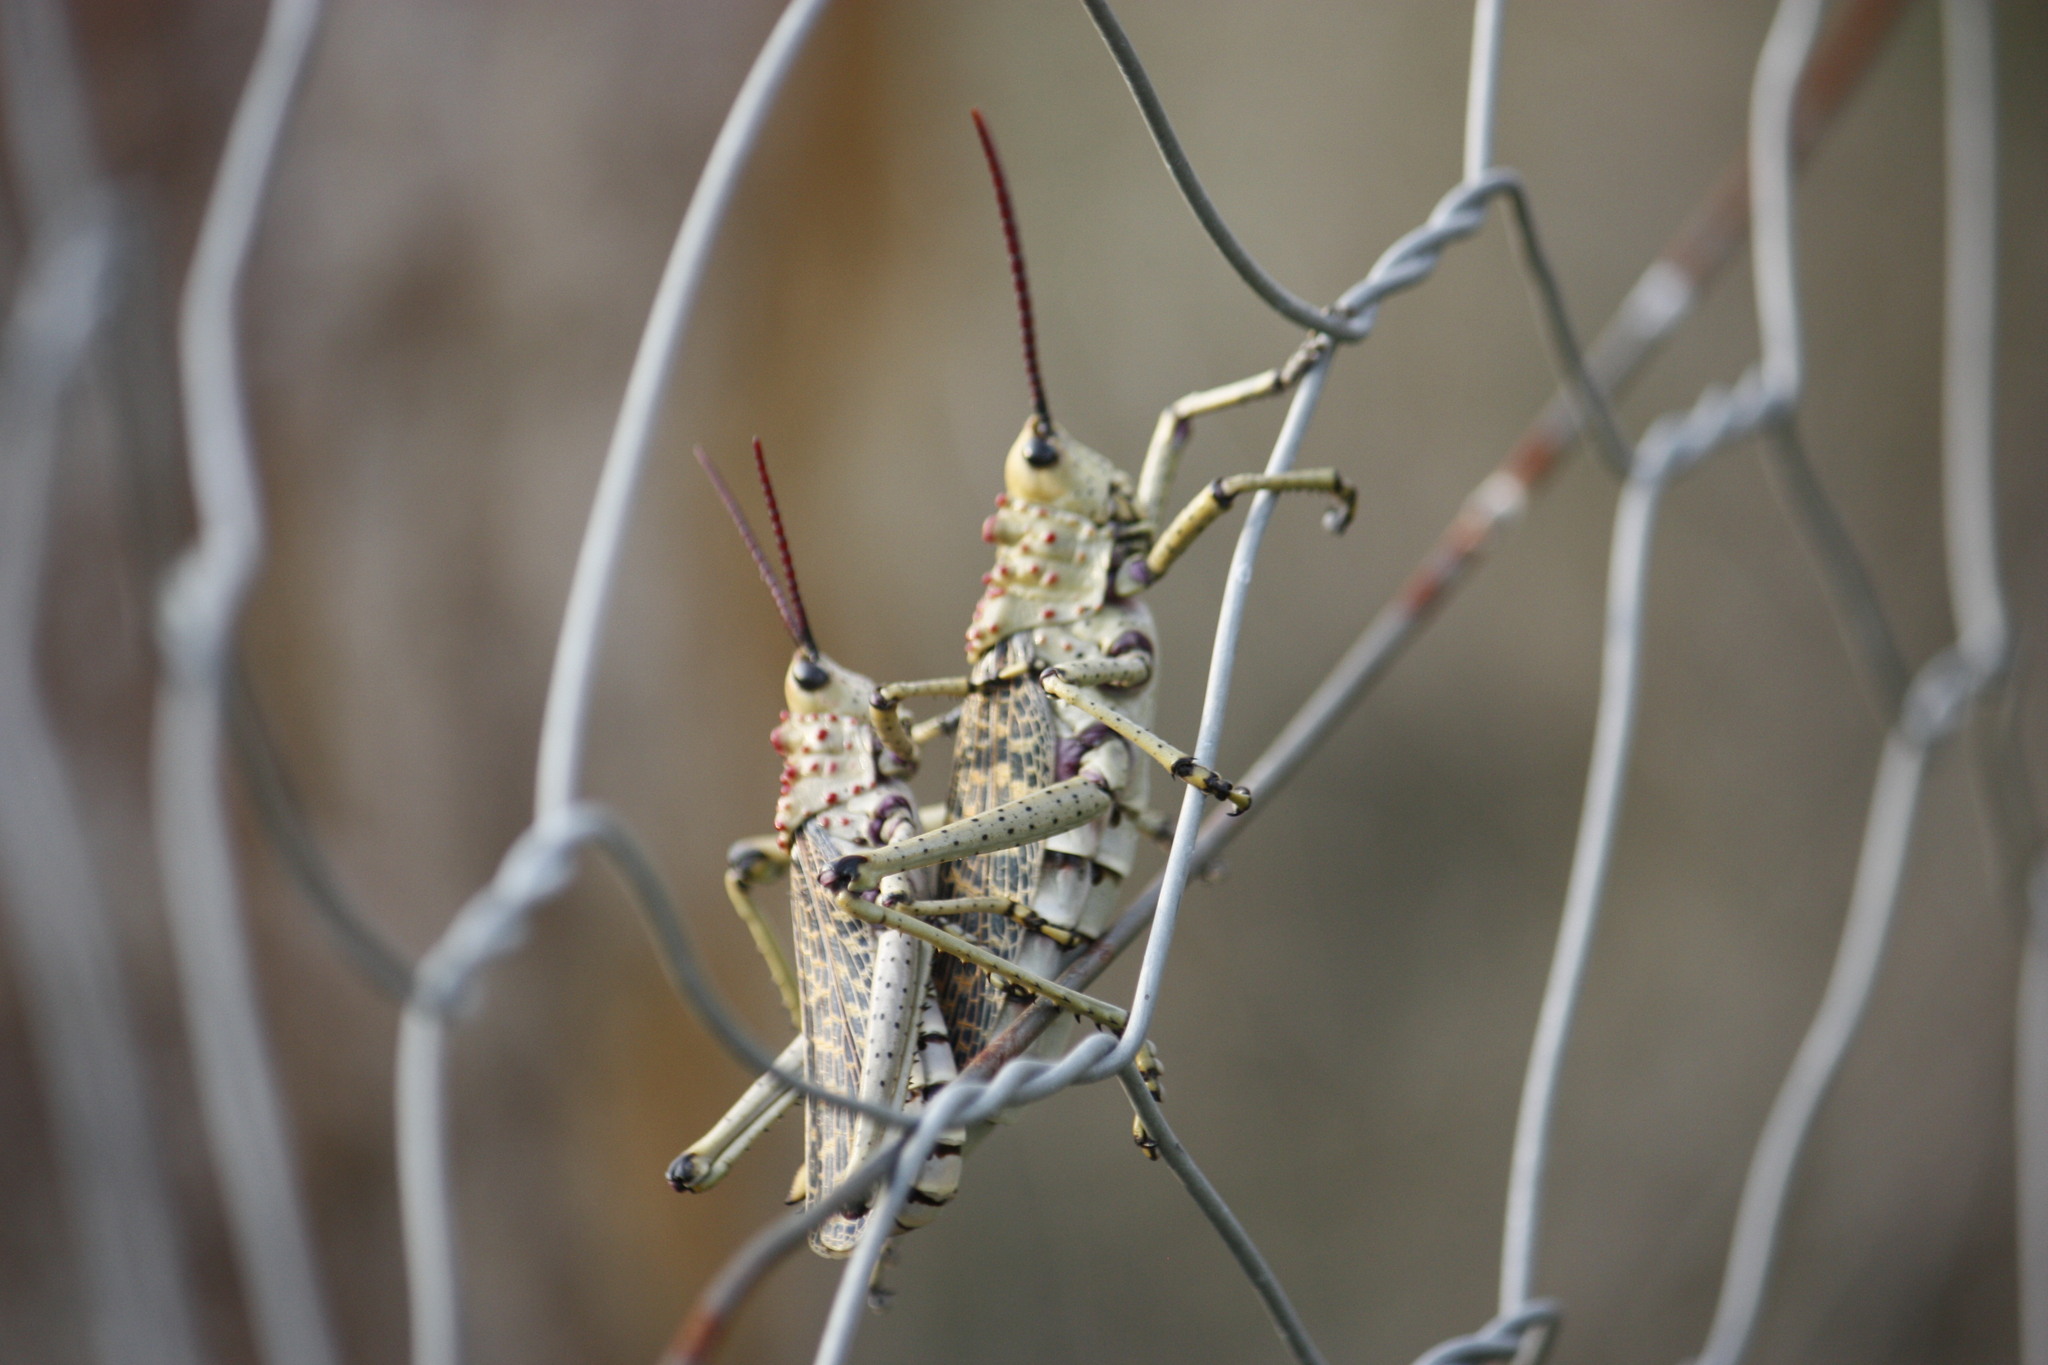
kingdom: Animalia
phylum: Arthropoda
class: Insecta
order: Orthoptera
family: Pyrgomorphidae
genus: Phymateus
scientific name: Phymateus baccatus
